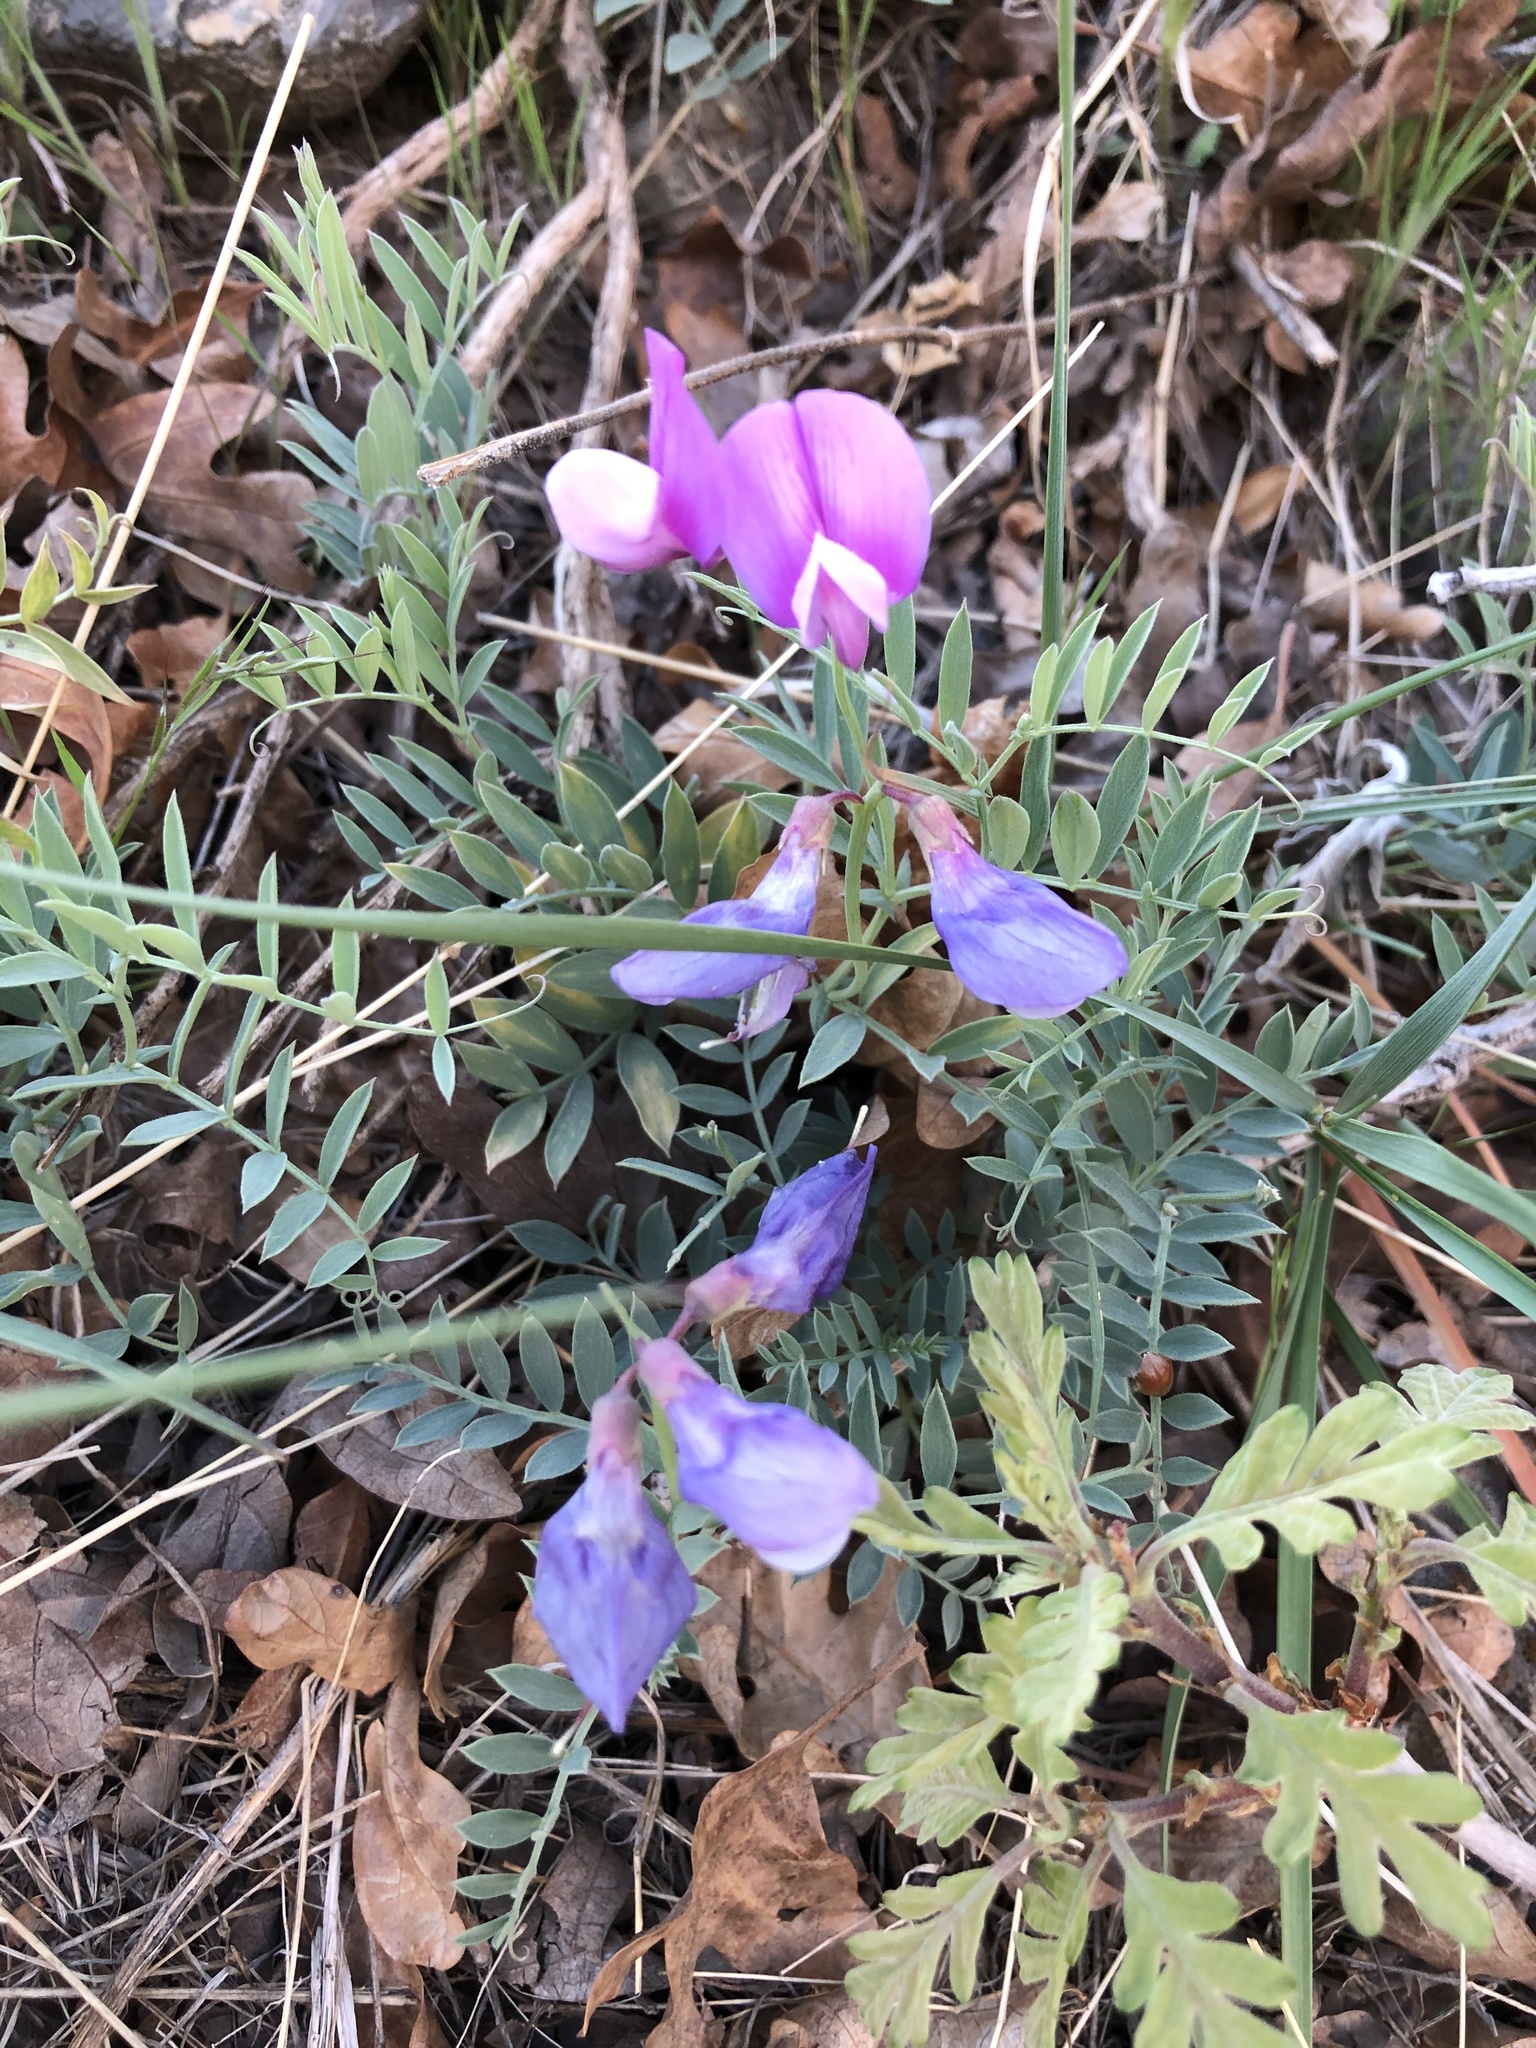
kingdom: Plantae
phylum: Tracheophyta
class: Magnoliopsida
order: Fabales
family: Fabaceae
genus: Lathyrus
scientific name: Lathyrus brachycalyx
